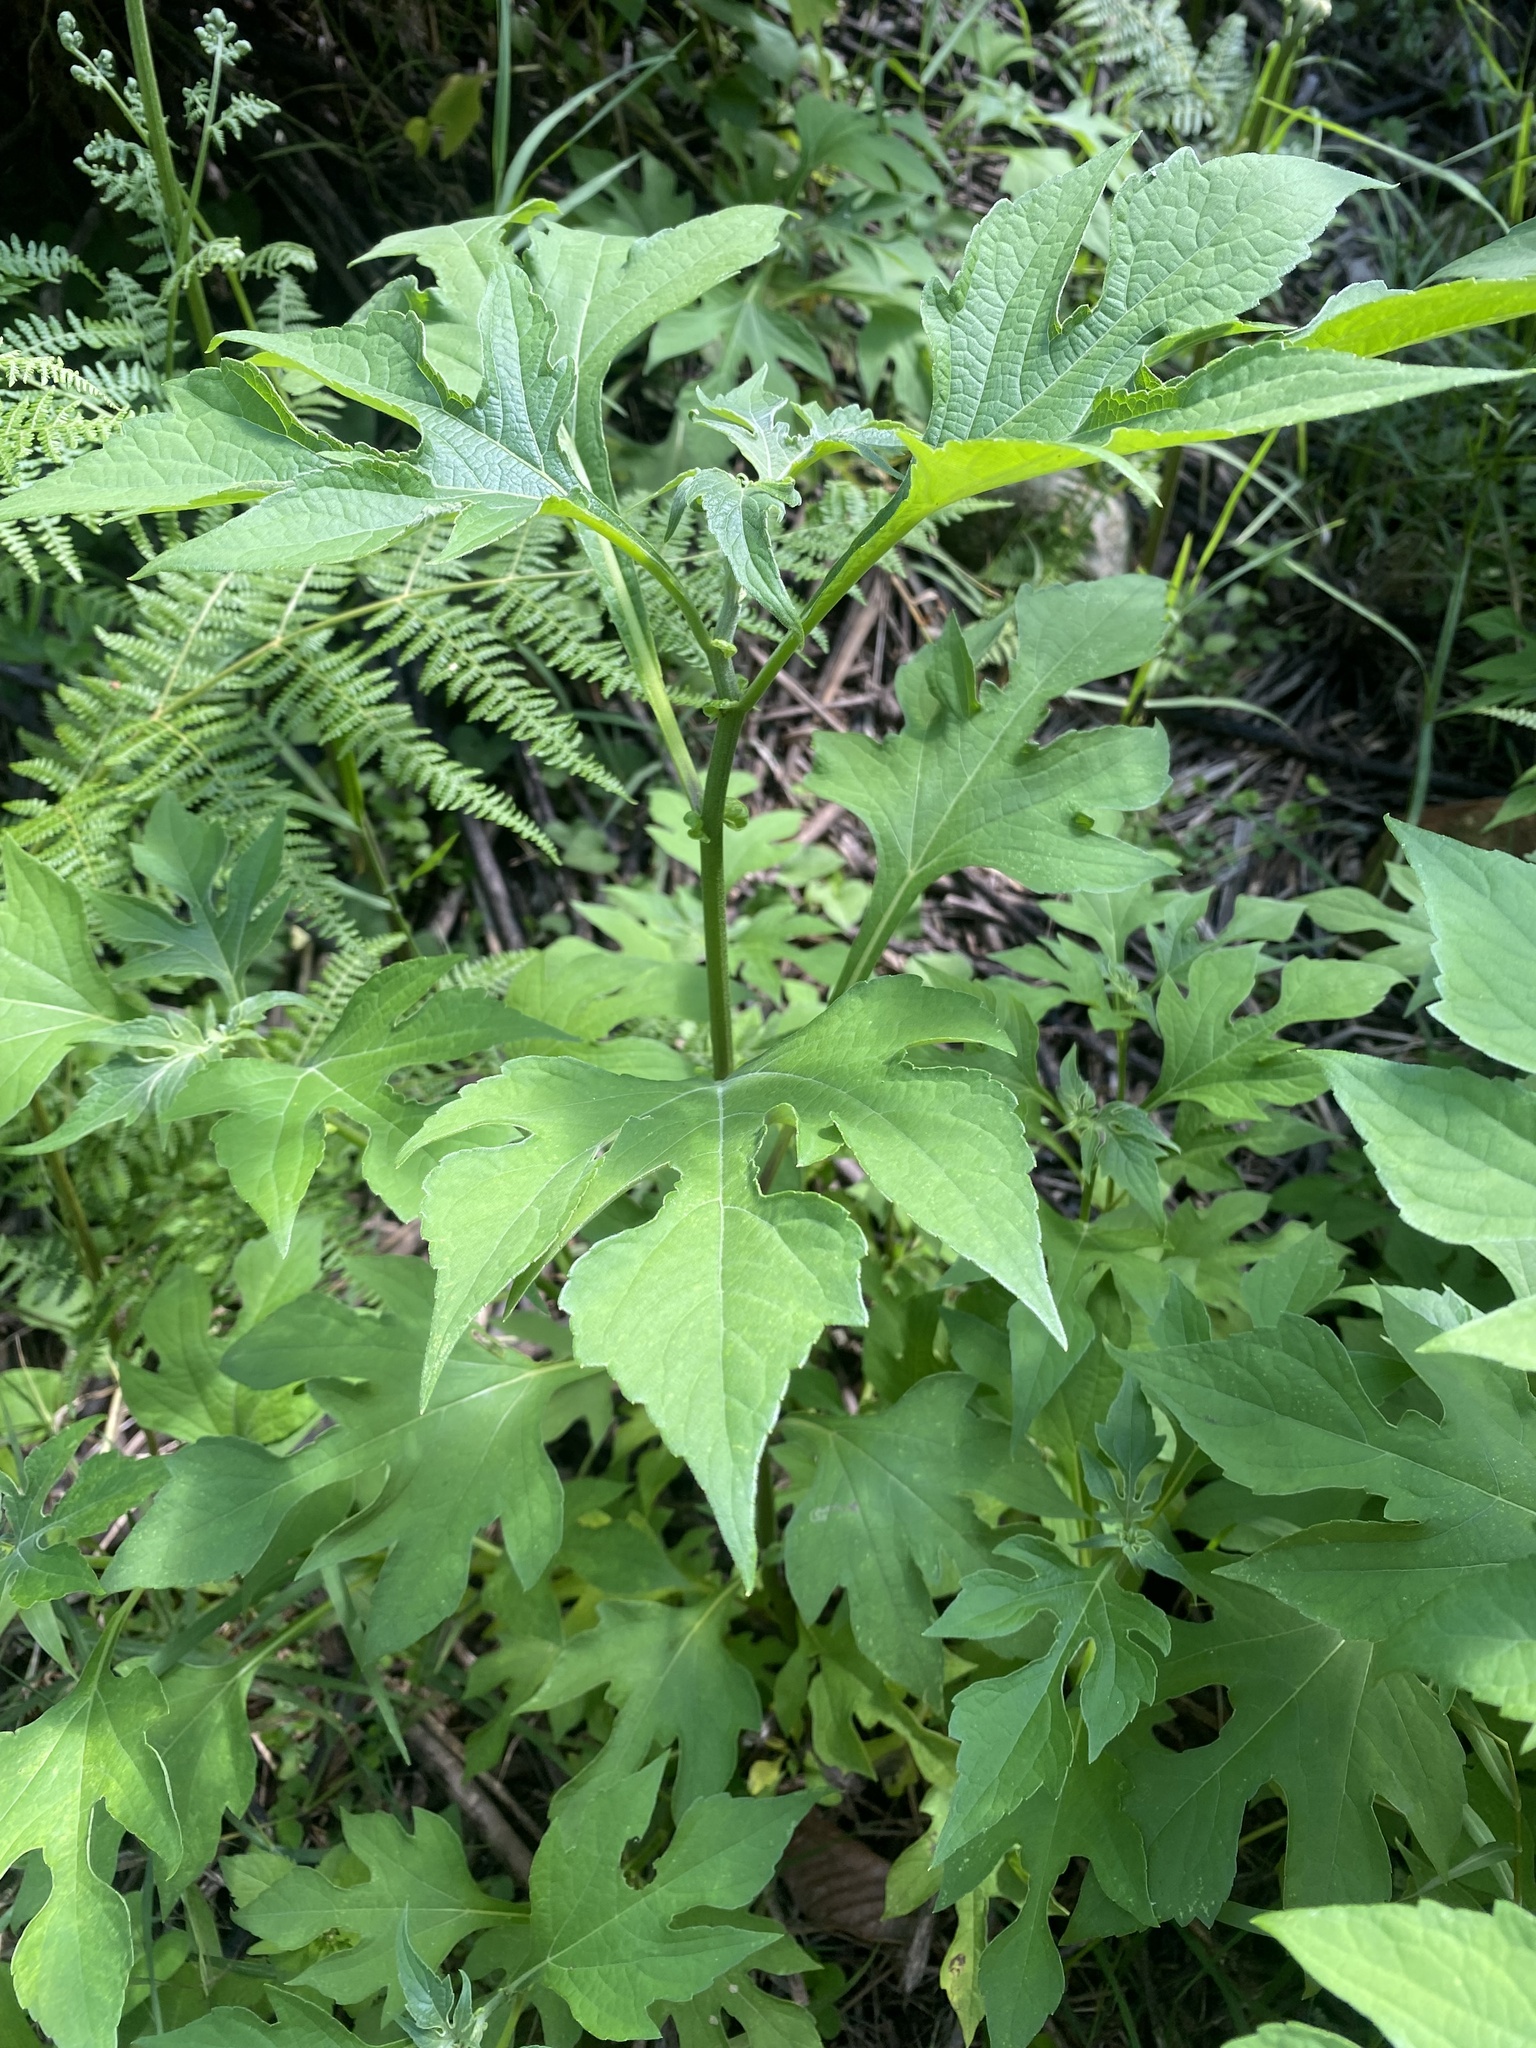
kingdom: Plantae
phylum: Tracheophyta
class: Magnoliopsida
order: Asterales
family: Asteraceae
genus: Tithonia
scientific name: Tithonia diversifolia
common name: Tree marigold
